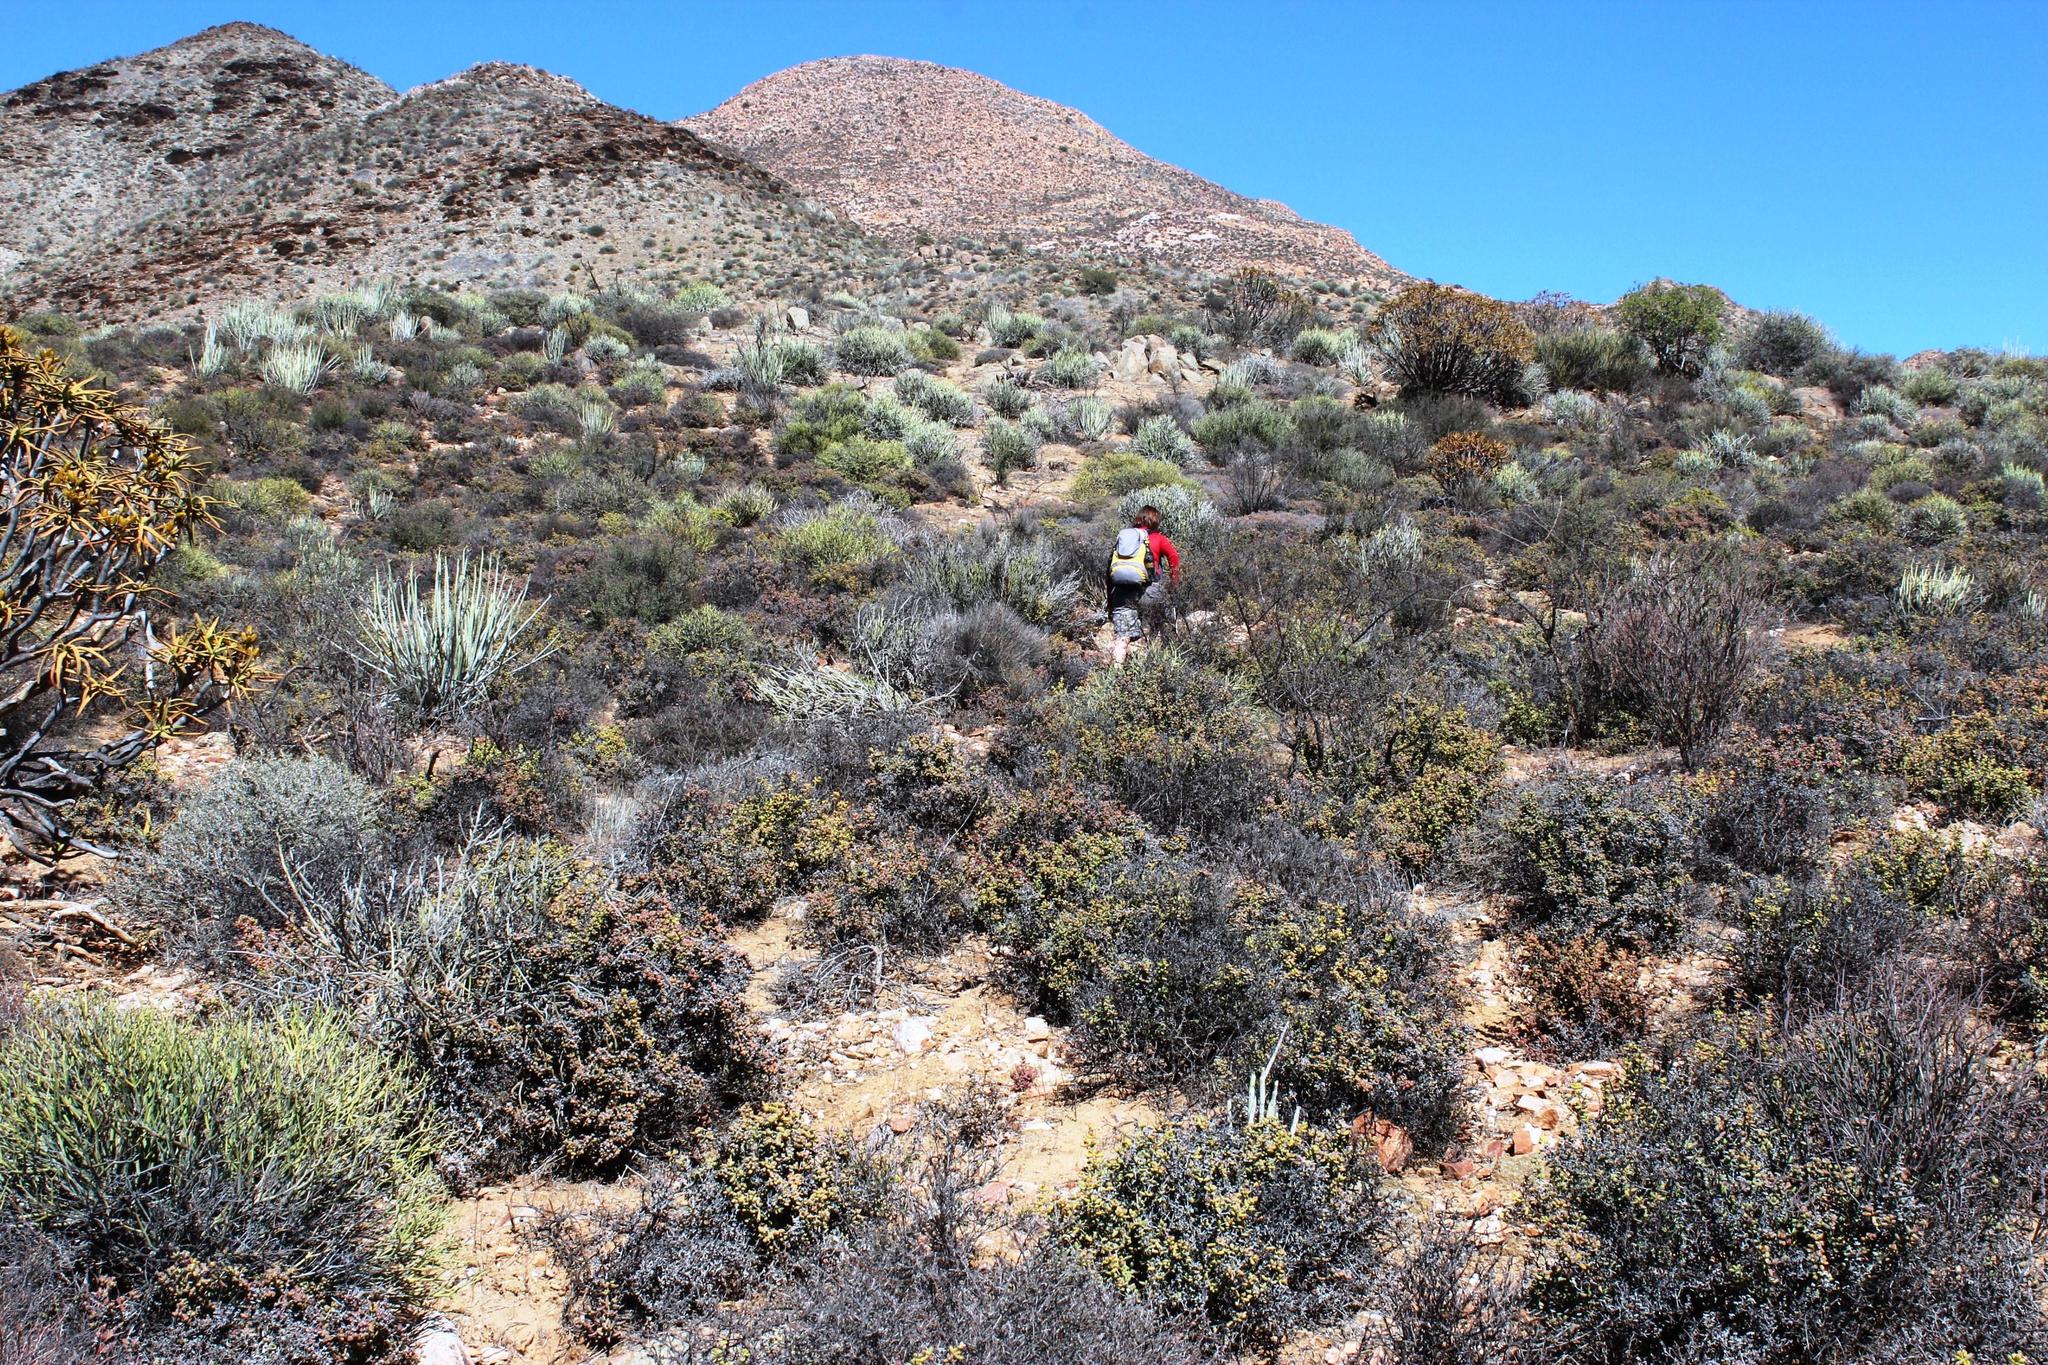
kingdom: Plantae
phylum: Tracheophyta
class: Magnoliopsida
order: Caryophyllales
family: Aizoaceae
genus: Ruschia
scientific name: Ruschia senaria
